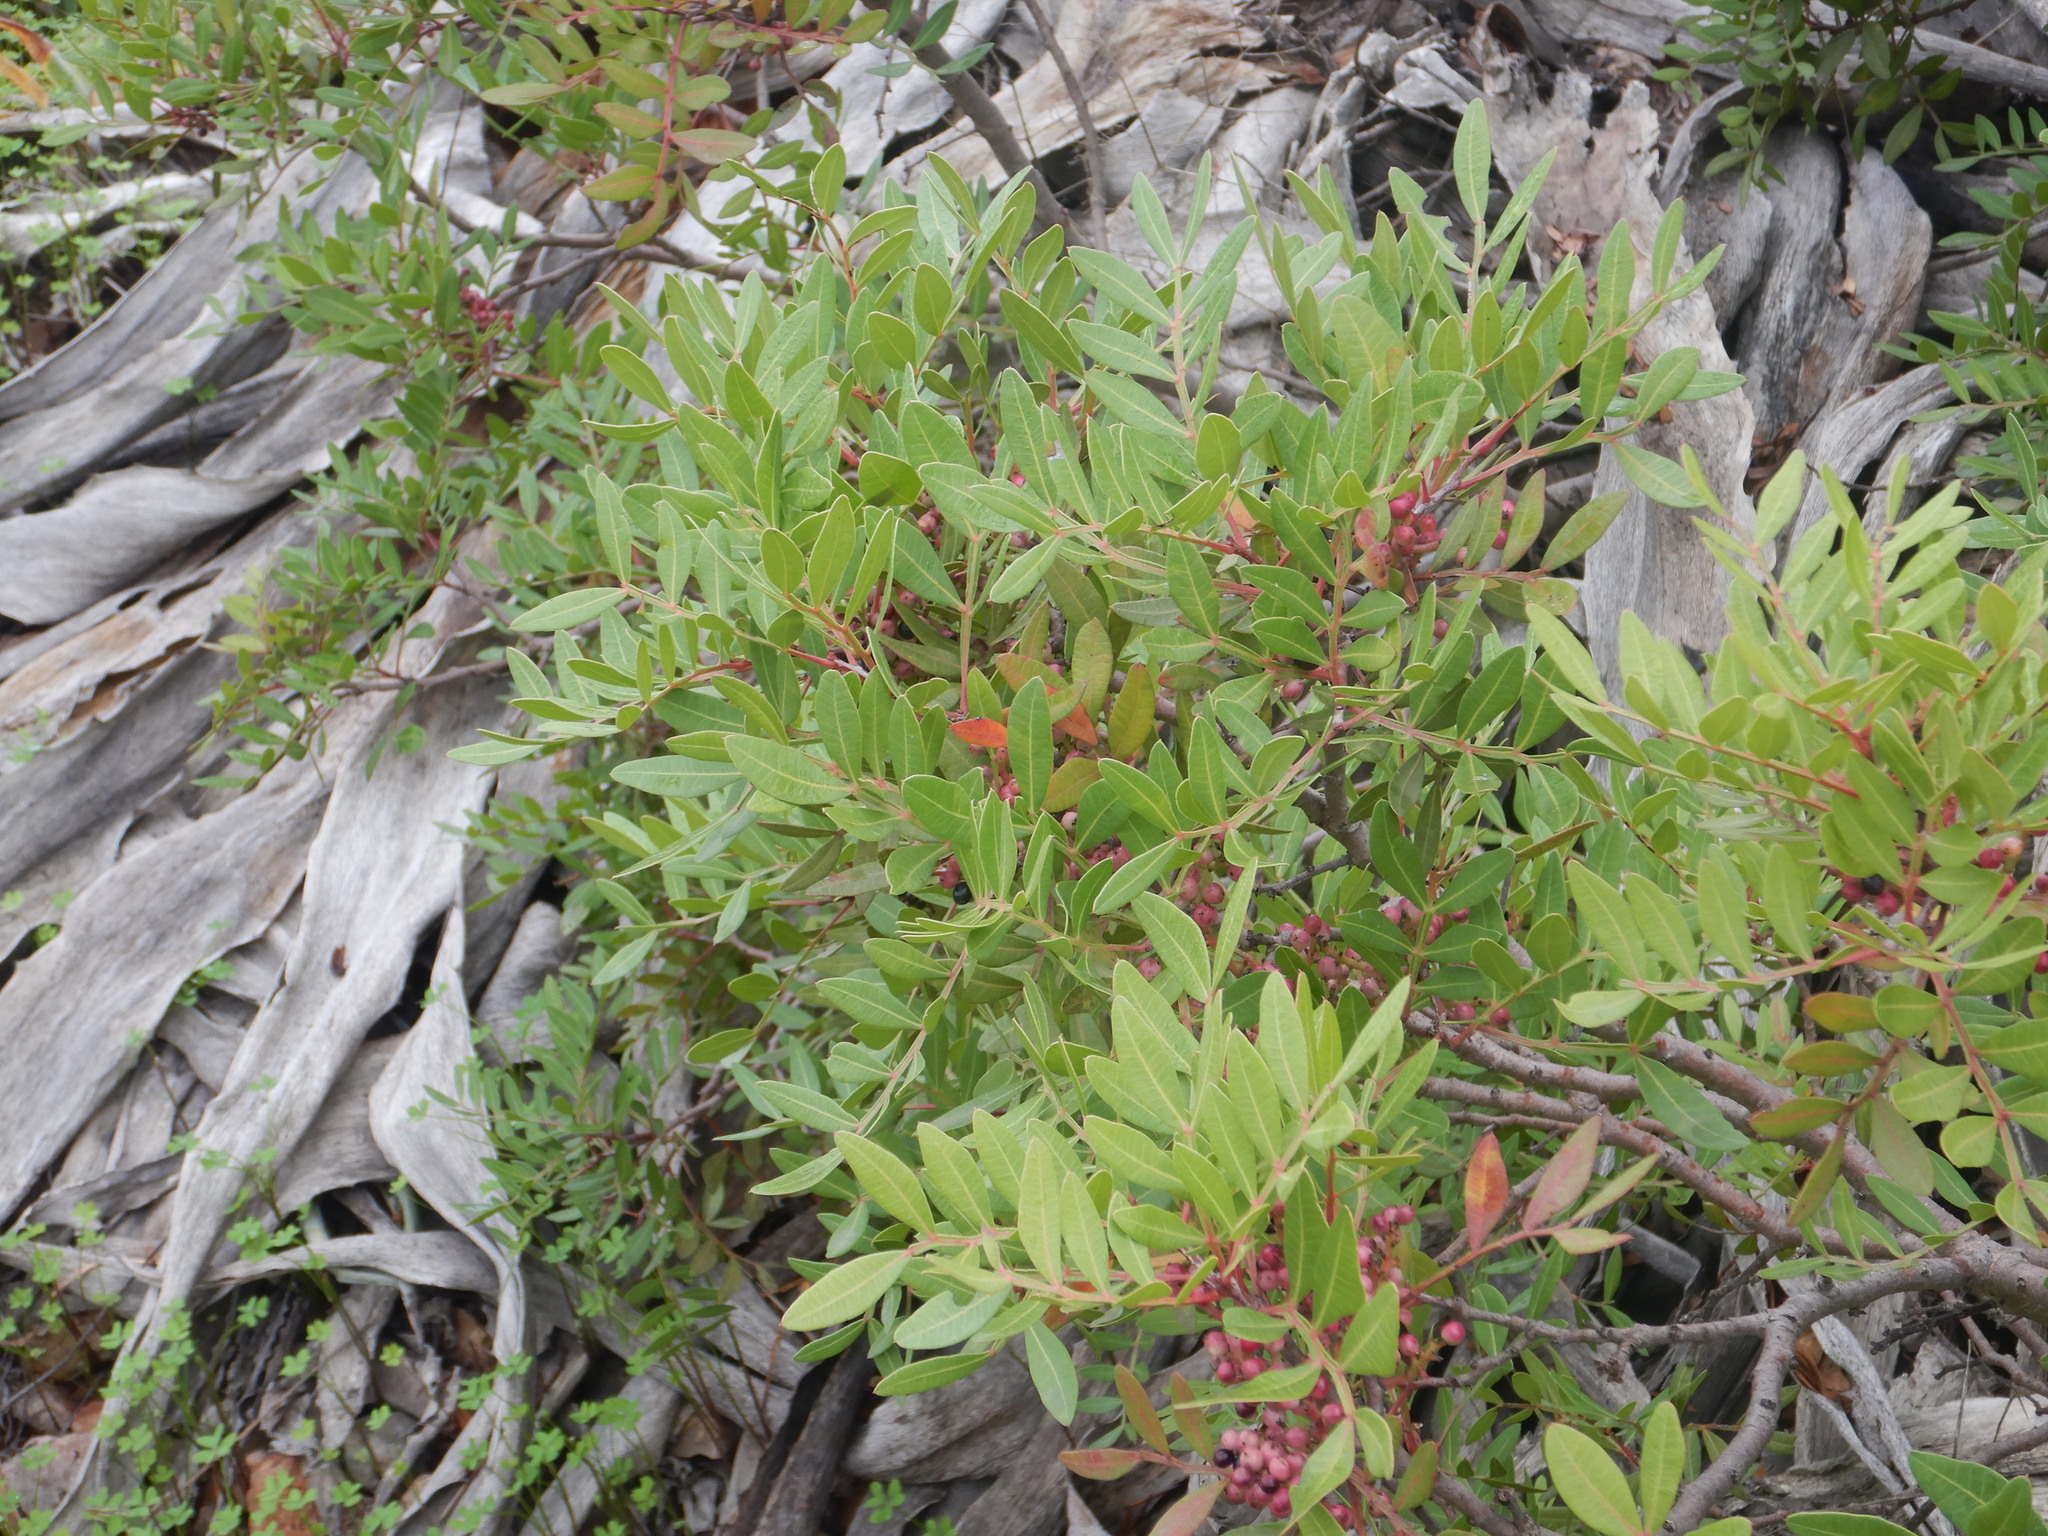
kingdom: Plantae
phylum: Tracheophyta
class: Magnoliopsida
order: Sapindales
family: Anacardiaceae
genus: Pistacia
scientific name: Pistacia lentiscus
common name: Lentisk
